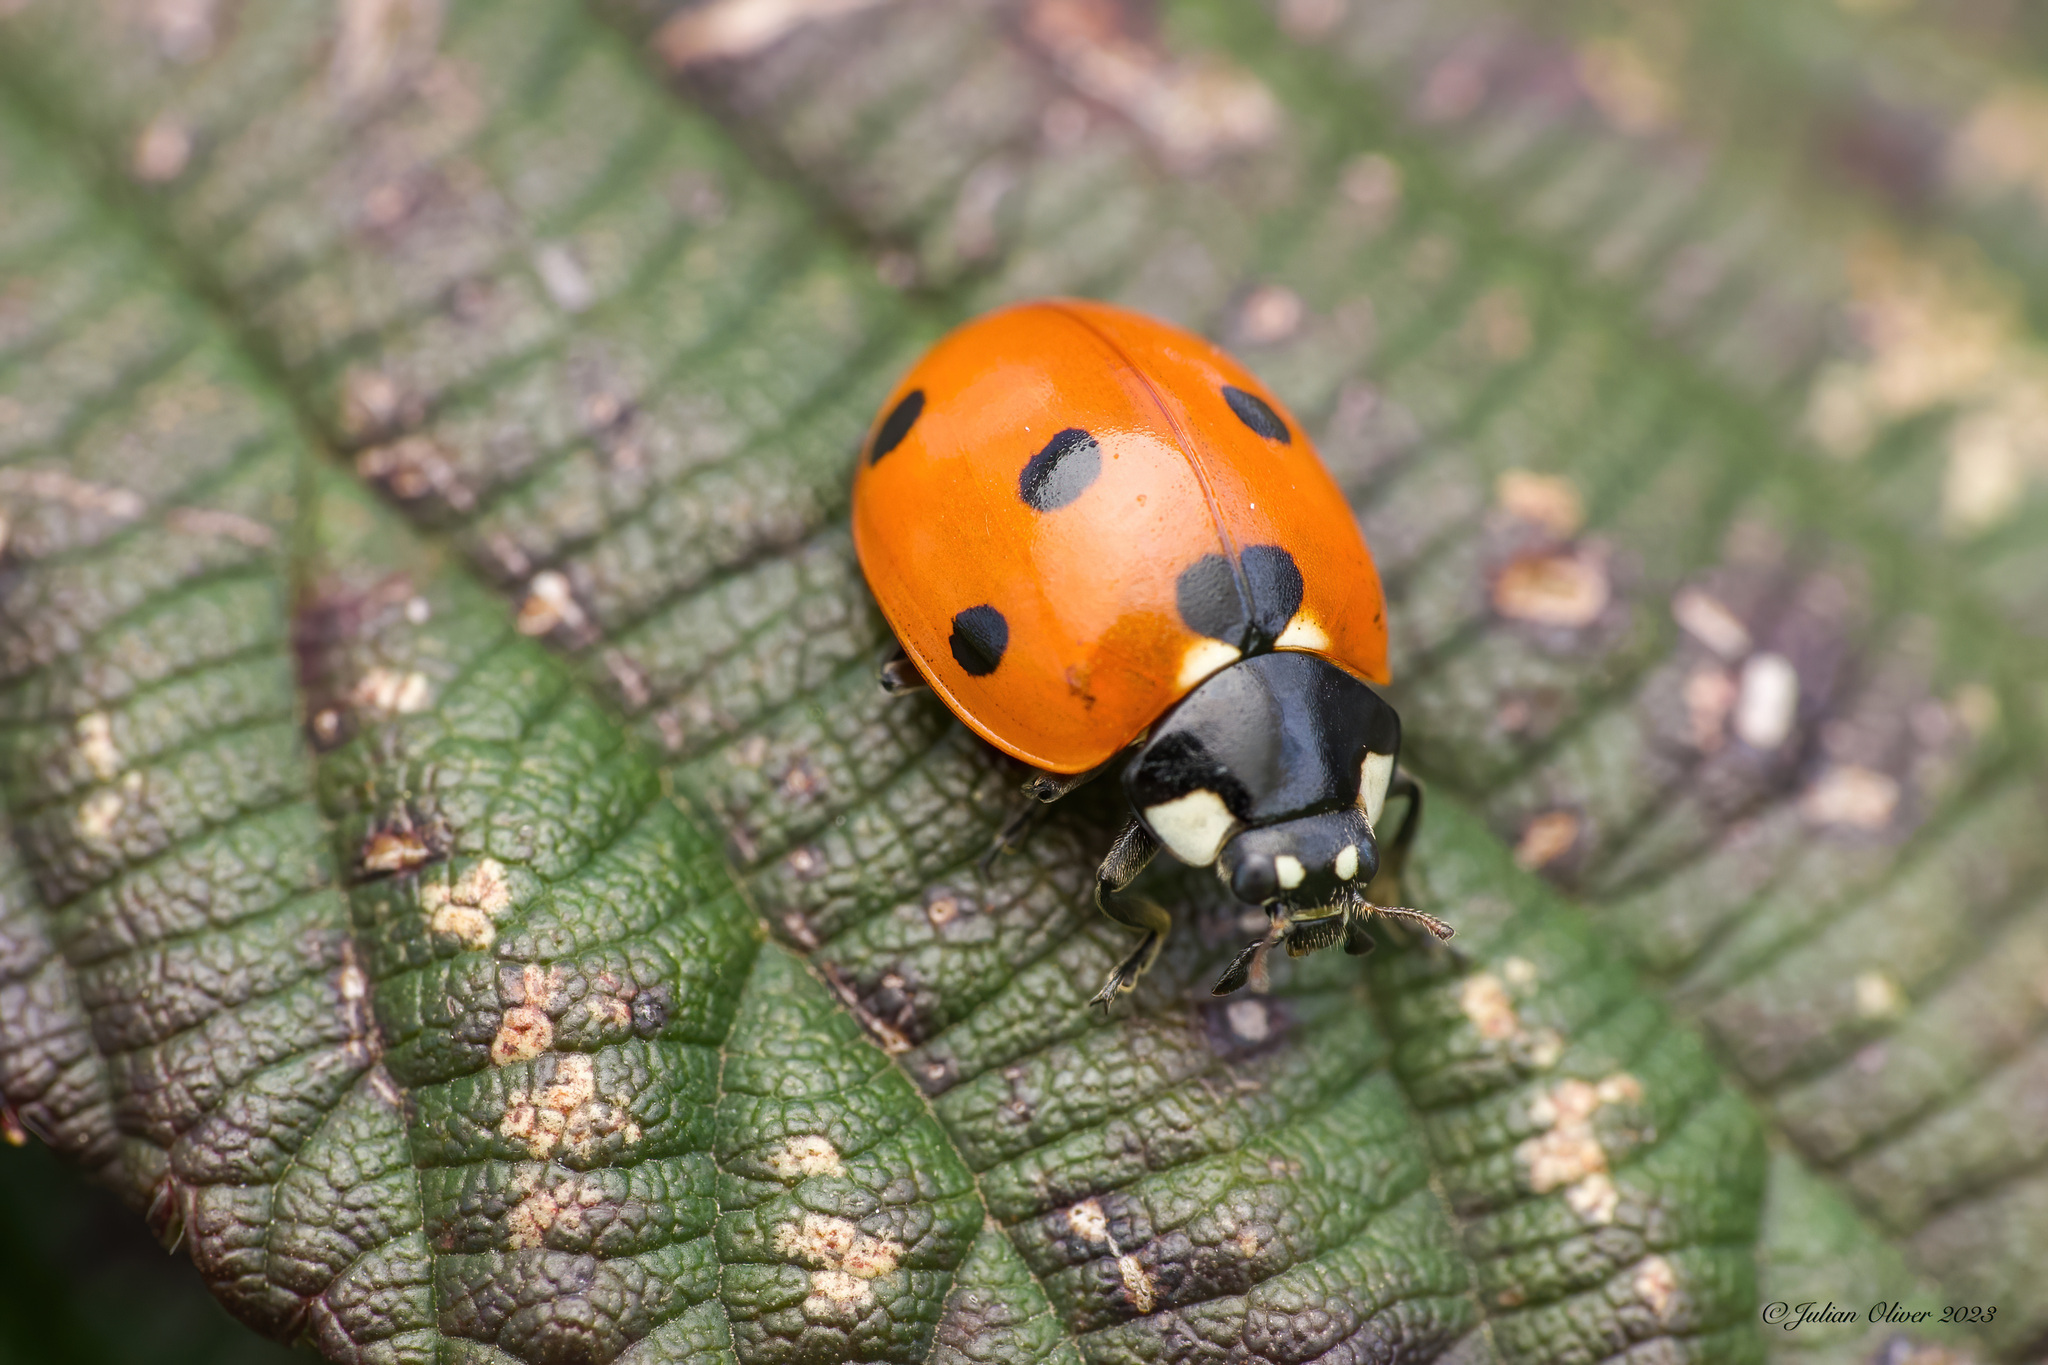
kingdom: Animalia
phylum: Arthropoda
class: Insecta
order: Coleoptera
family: Coccinellidae
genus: Coccinella
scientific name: Coccinella septempunctata
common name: Sevenspotted lady beetle
